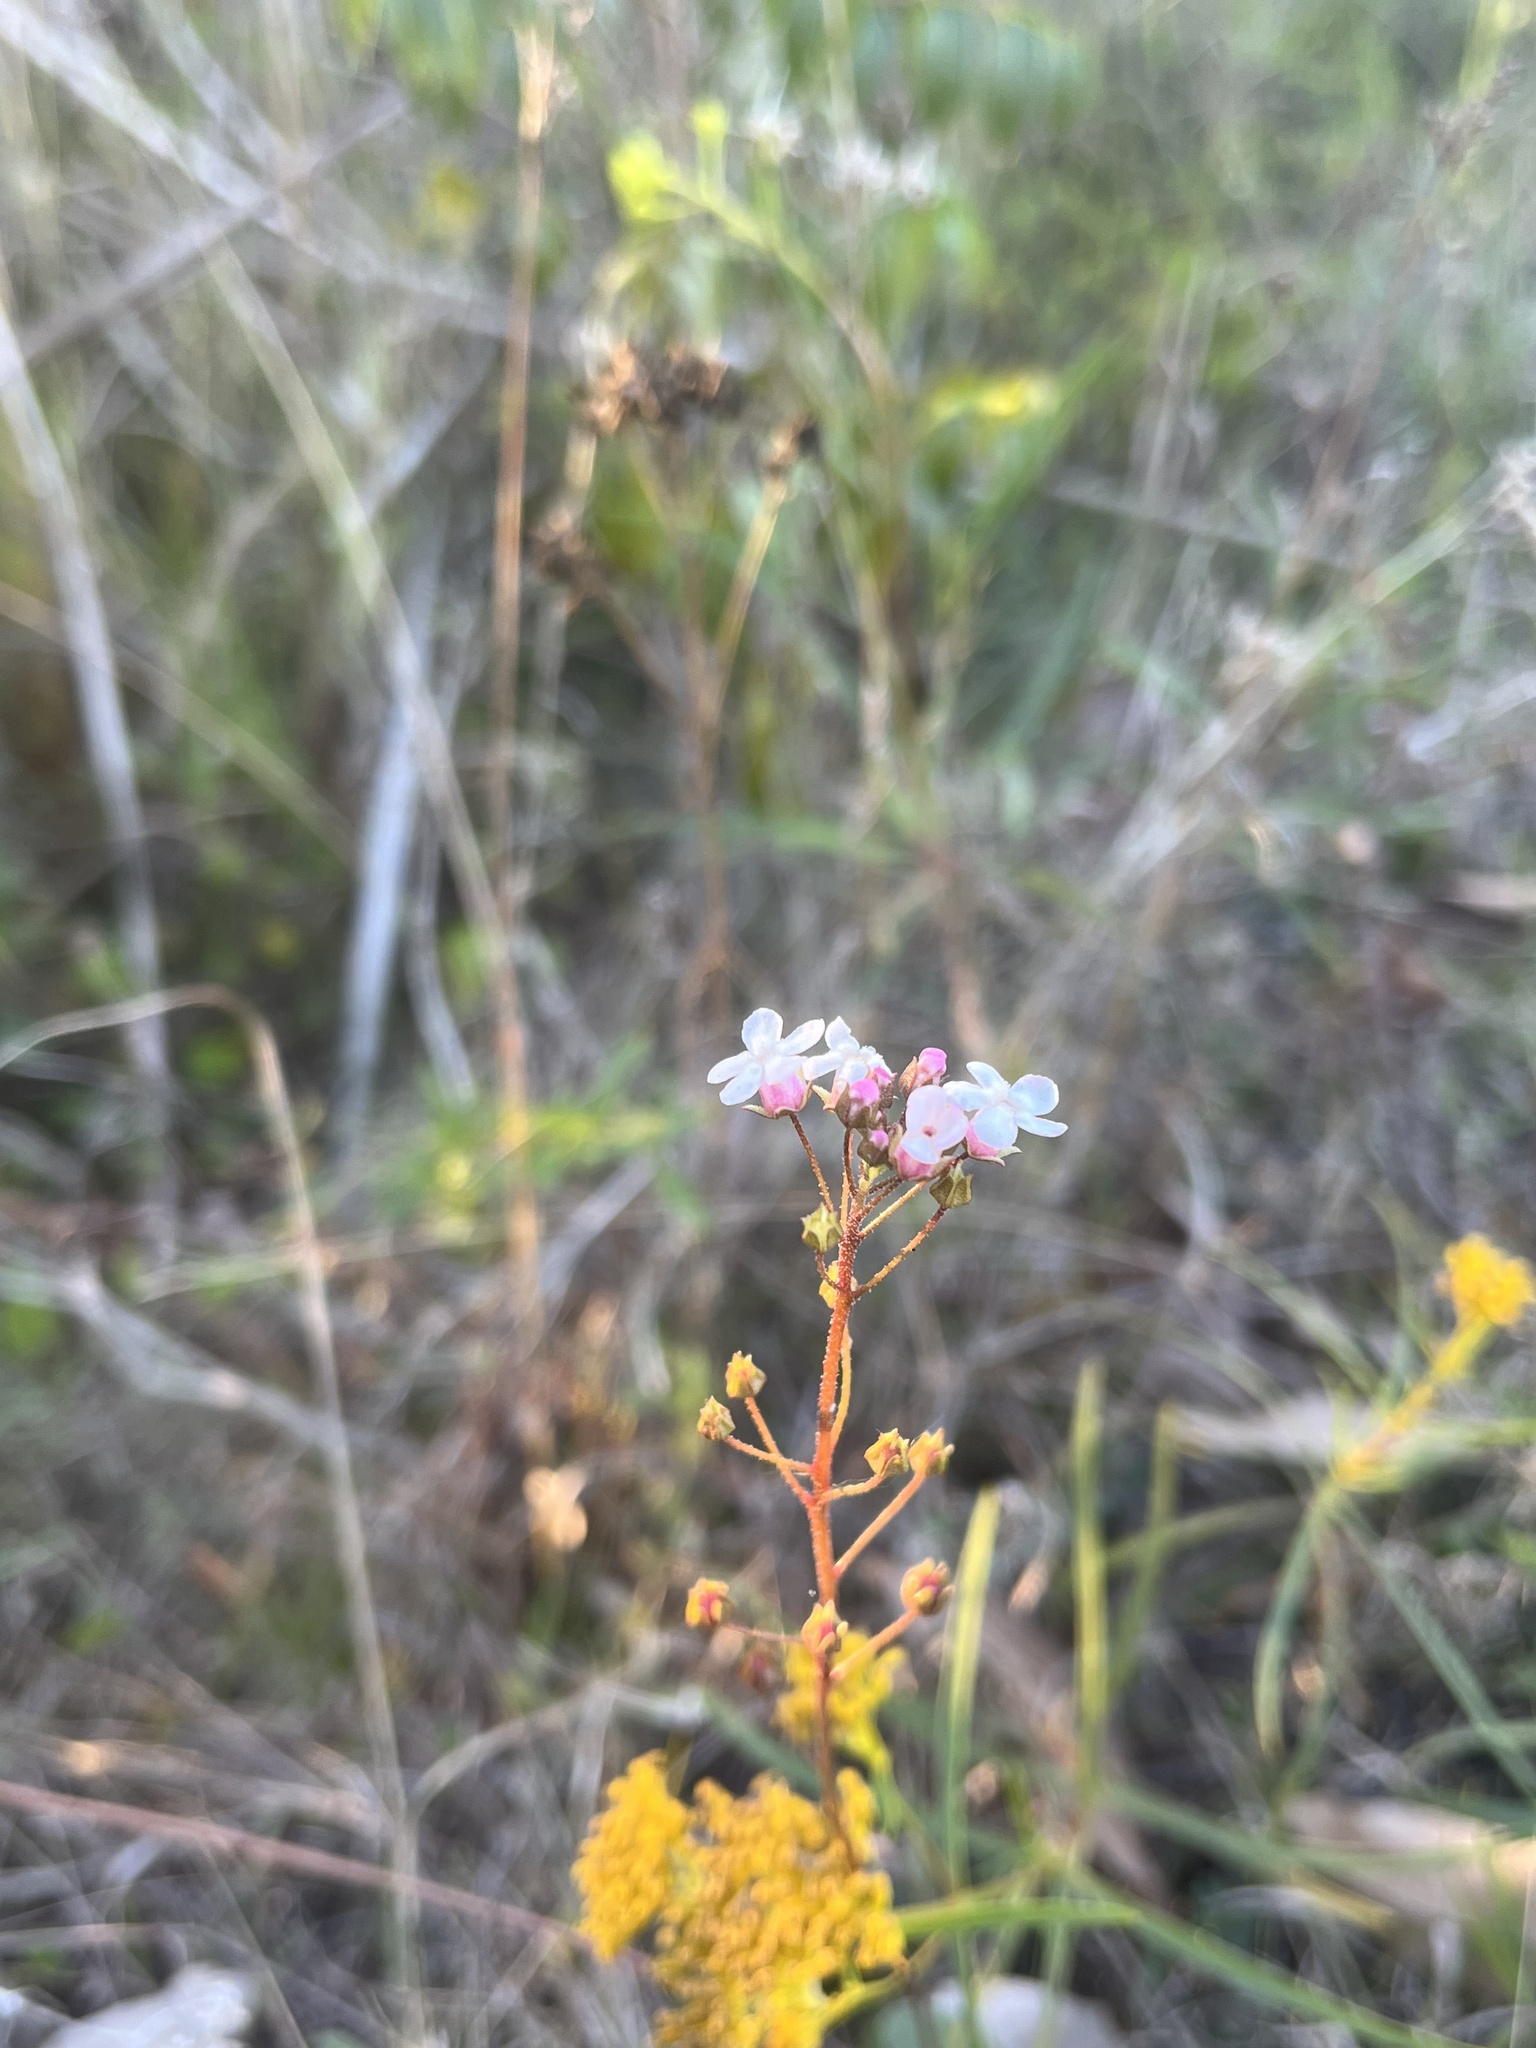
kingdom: Plantae
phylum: Tracheophyta
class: Magnoliopsida
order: Ericales
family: Primulaceae
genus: Samolus
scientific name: Samolus ebracteatus
